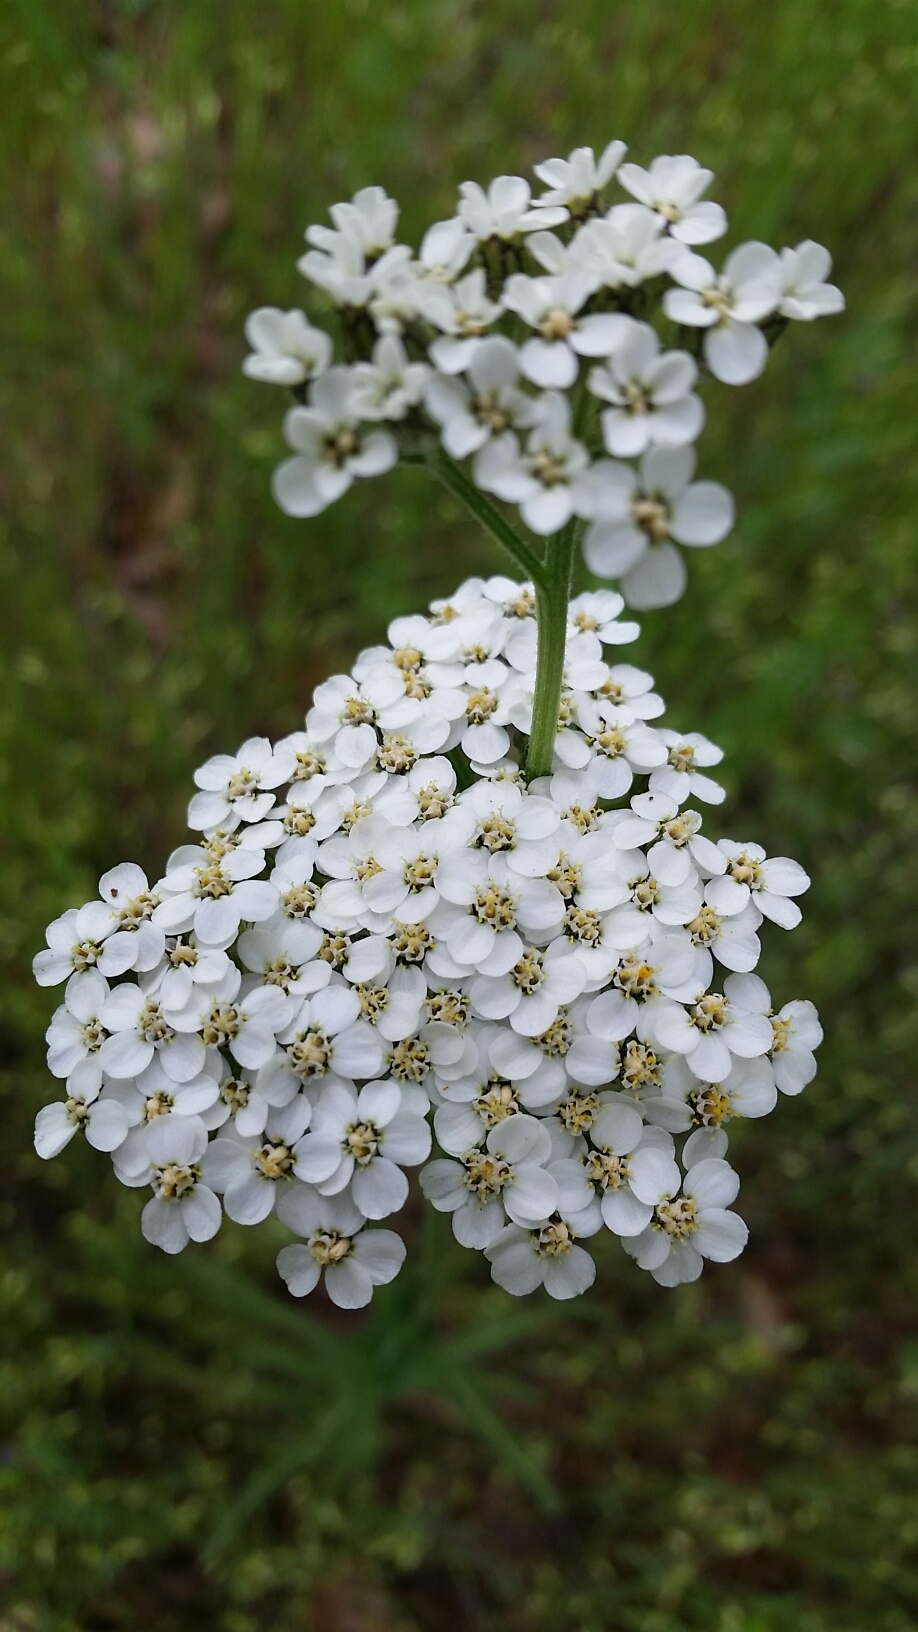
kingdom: Plantae
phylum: Tracheophyta
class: Magnoliopsida
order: Asterales
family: Asteraceae
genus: Achillea
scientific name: Achillea millefolium
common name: Yarrow
